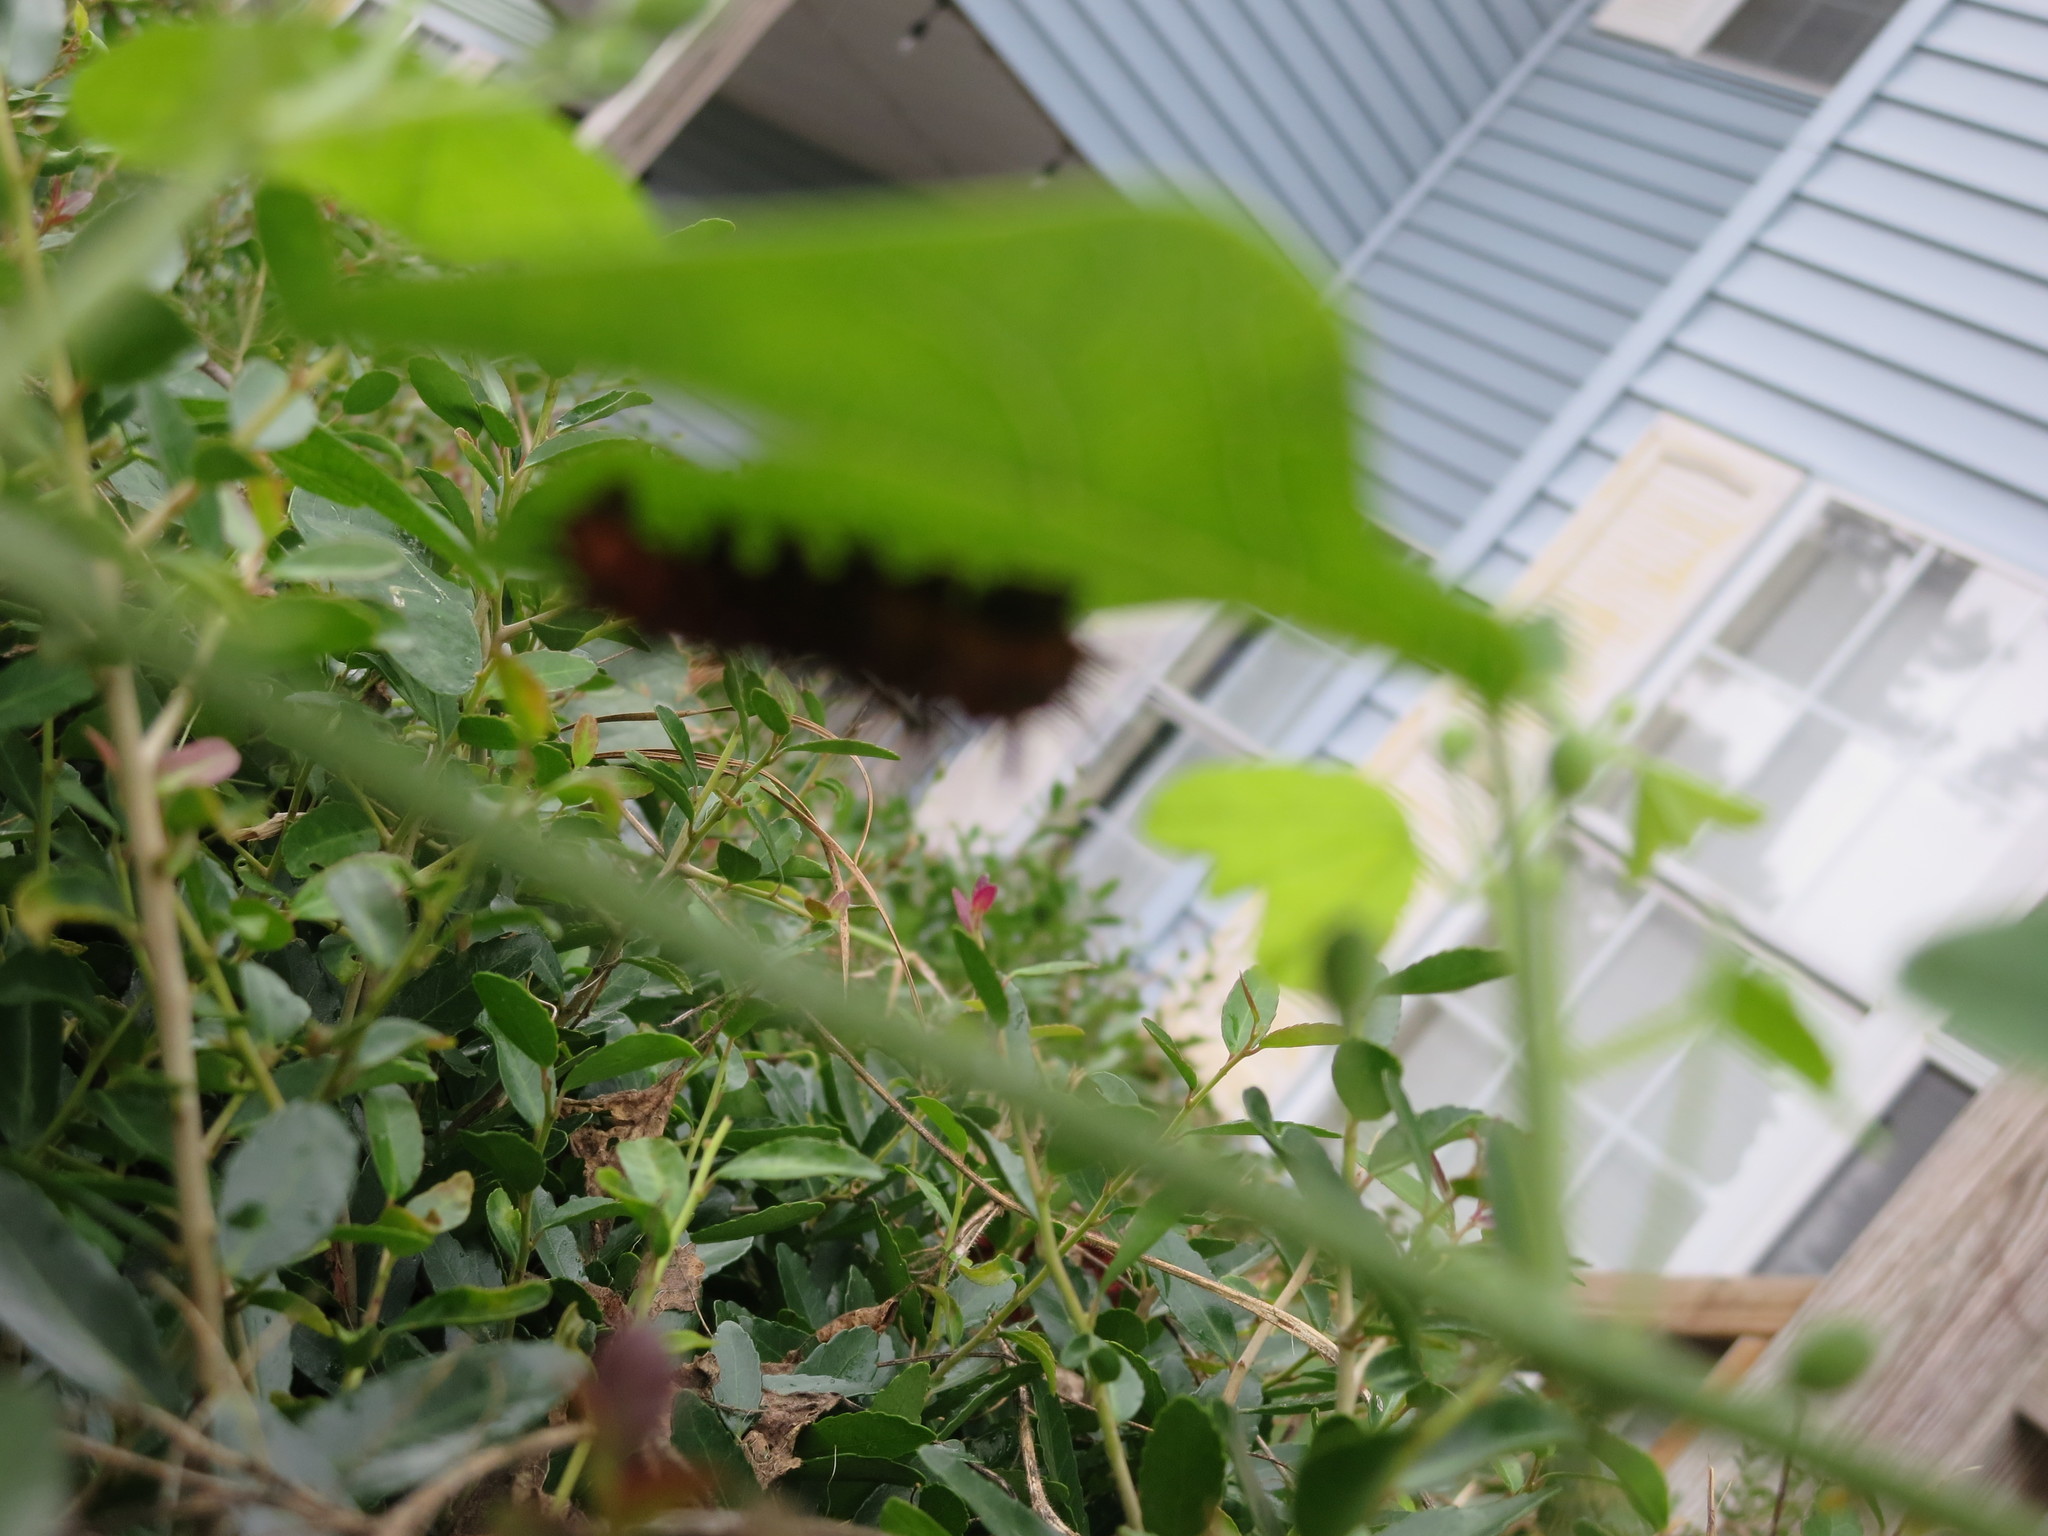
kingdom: Animalia
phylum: Arthropoda
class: Insecta
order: Lepidoptera
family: Nymphalidae
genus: Dione
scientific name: Dione vanillae
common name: Gulf fritillary
